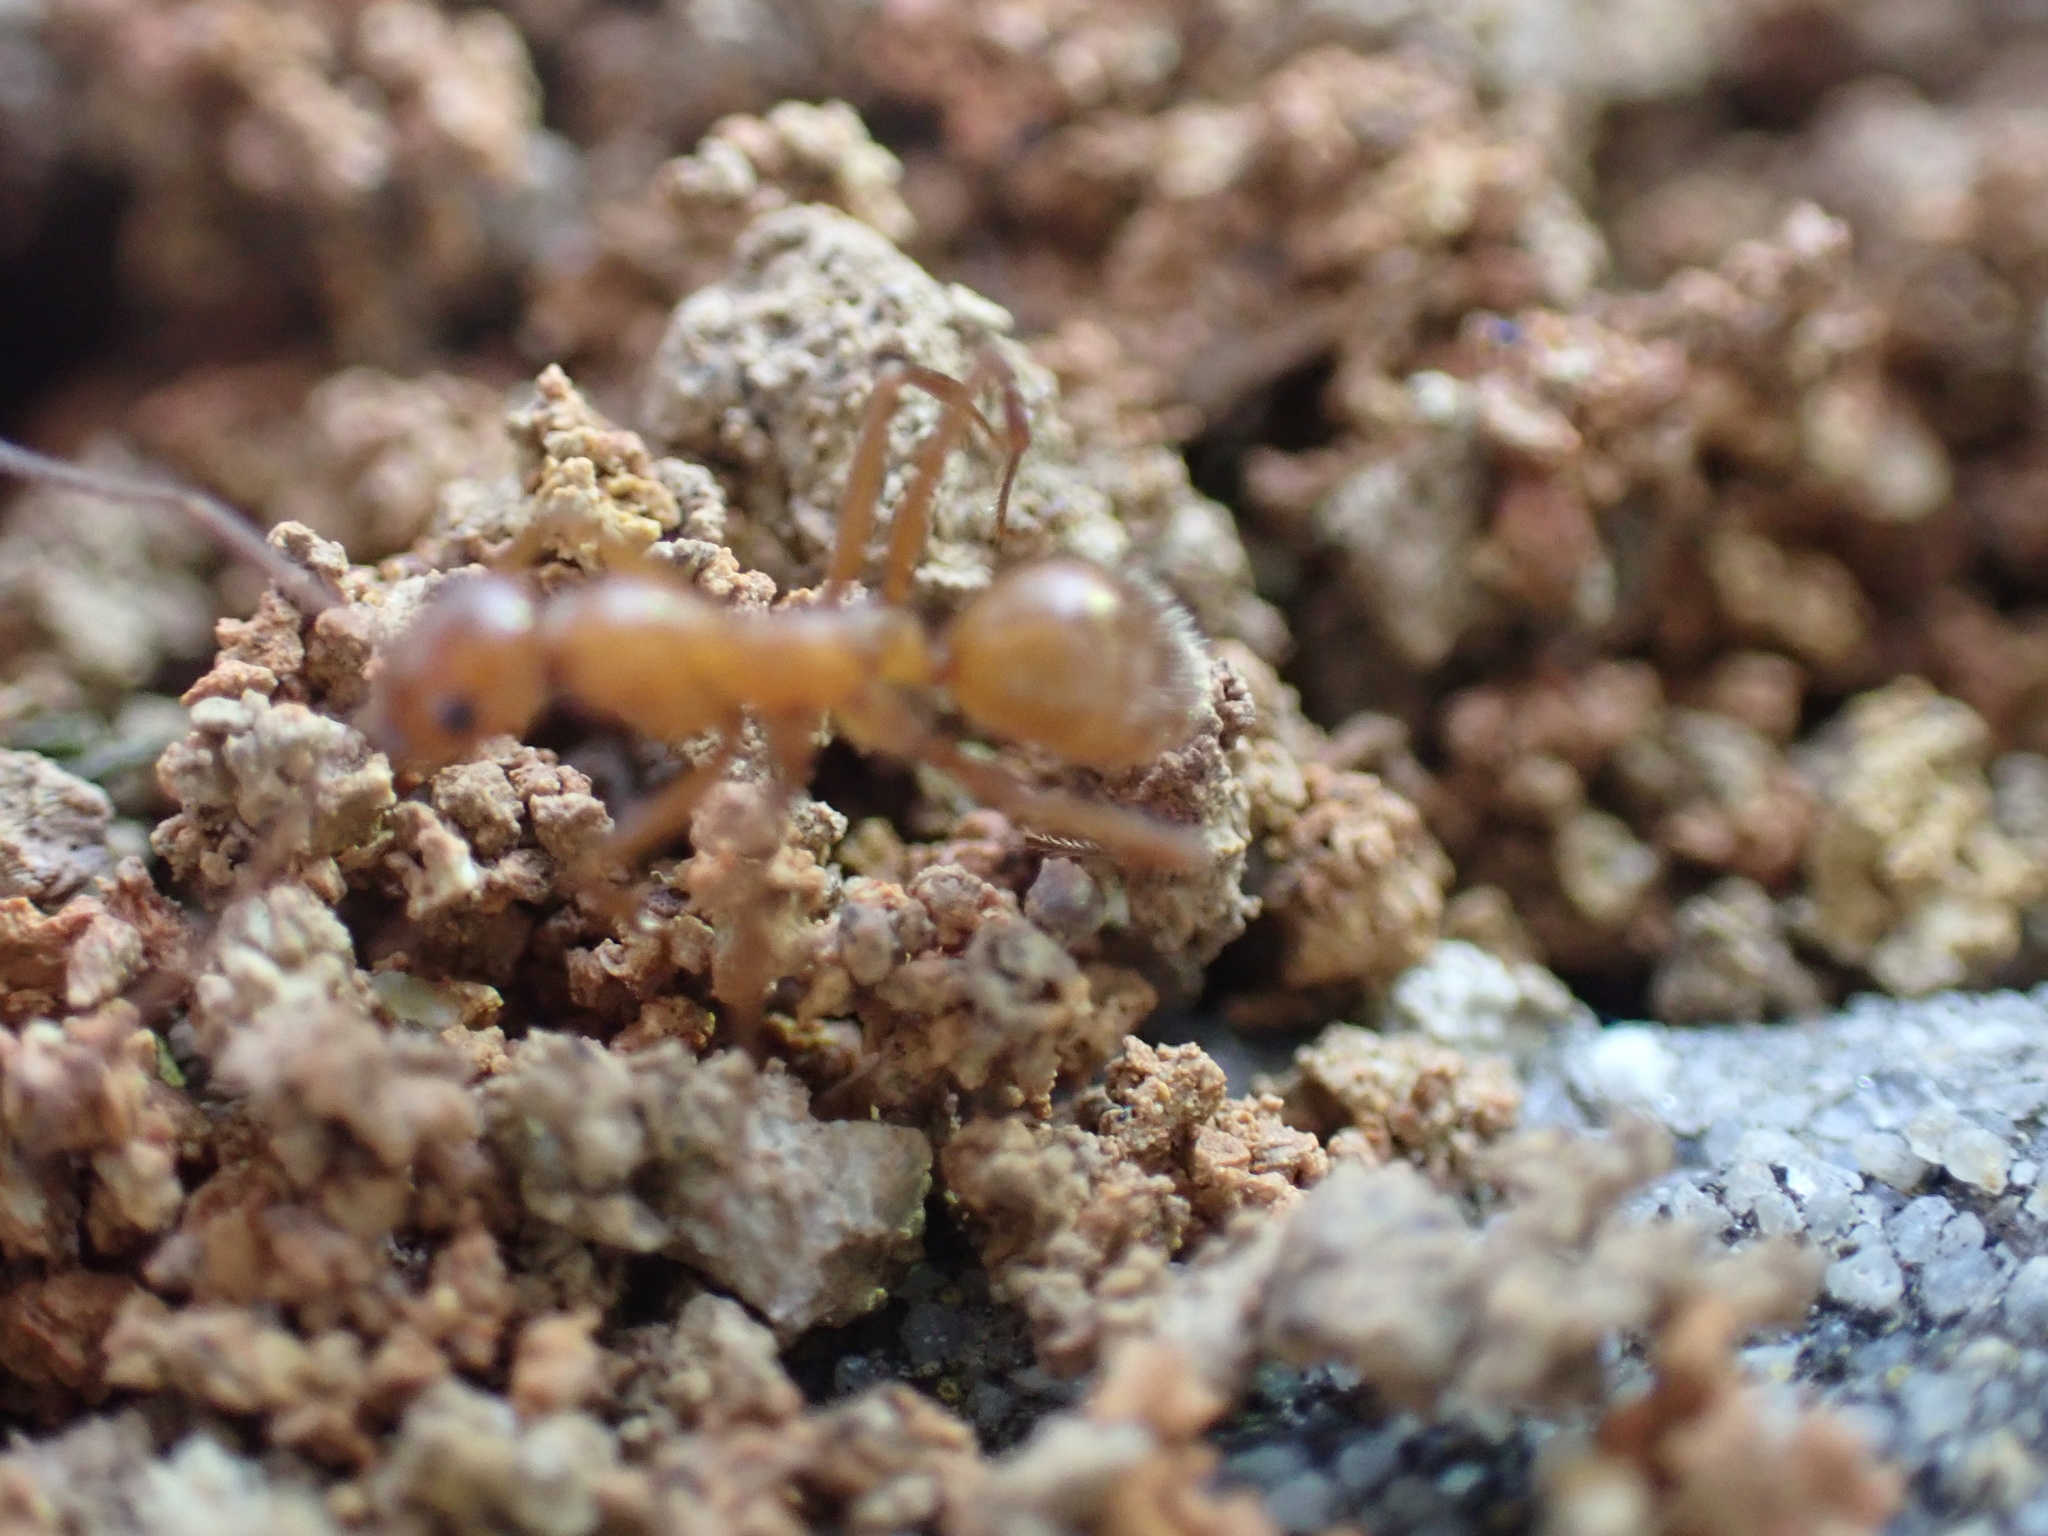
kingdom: Animalia
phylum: Arthropoda
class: Insecta
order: Hymenoptera
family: Formicidae
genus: Formica
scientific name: Formica dolosa
